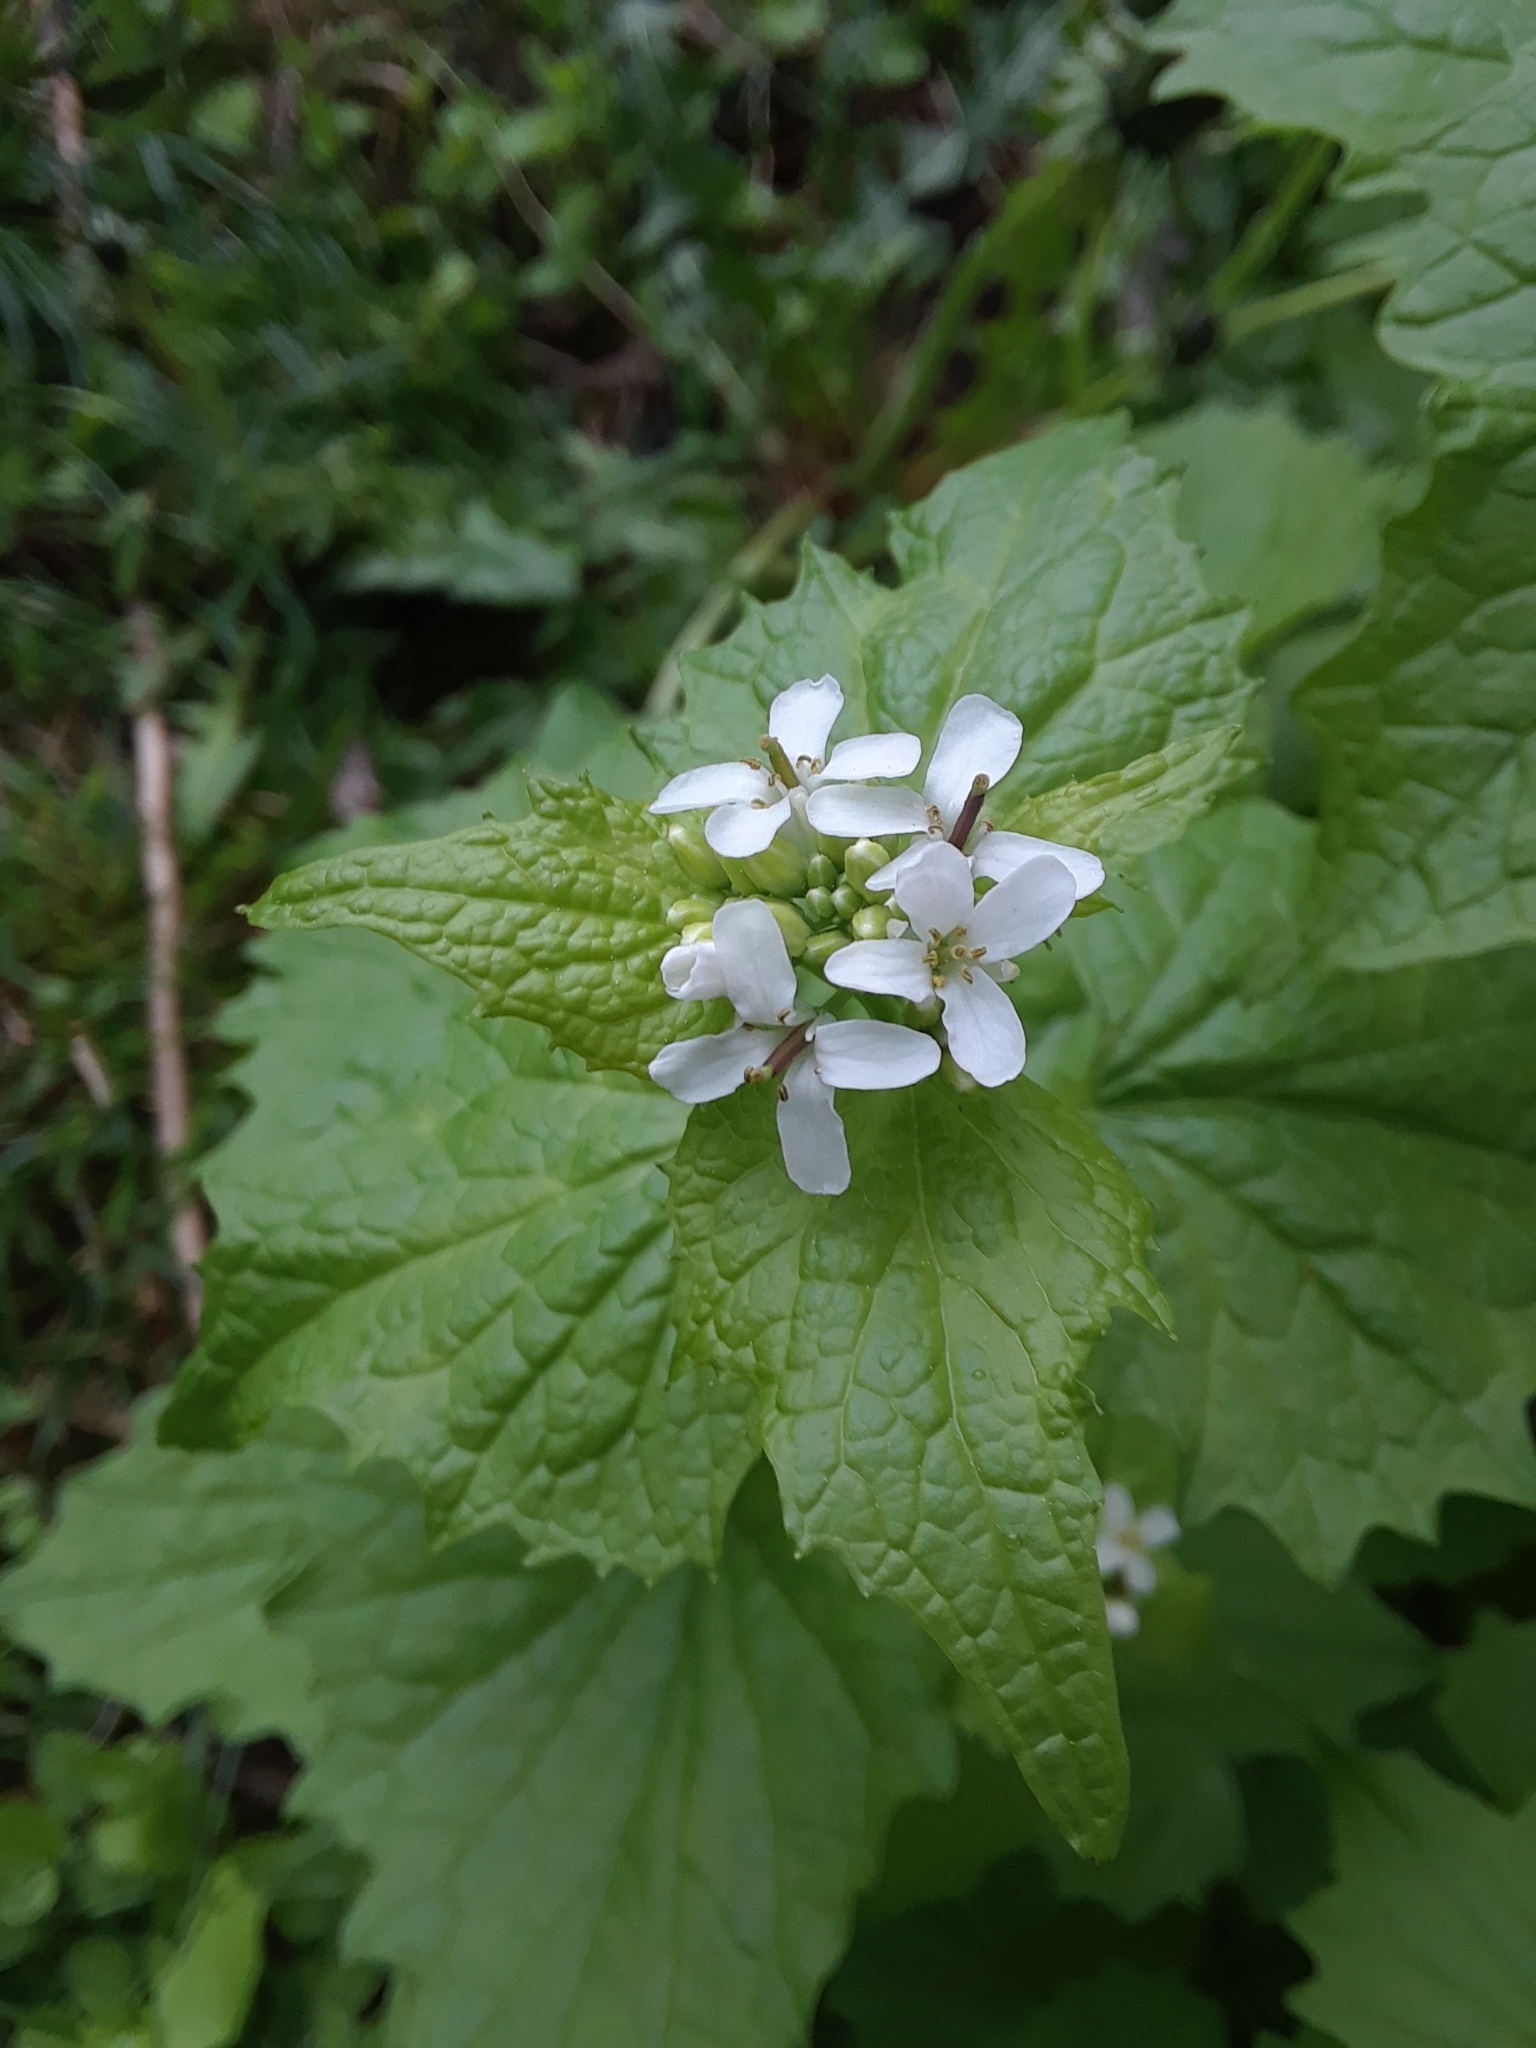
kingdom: Plantae
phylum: Tracheophyta
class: Magnoliopsida
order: Brassicales
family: Brassicaceae
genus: Alliaria
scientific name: Alliaria petiolata
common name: Garlic mustard
